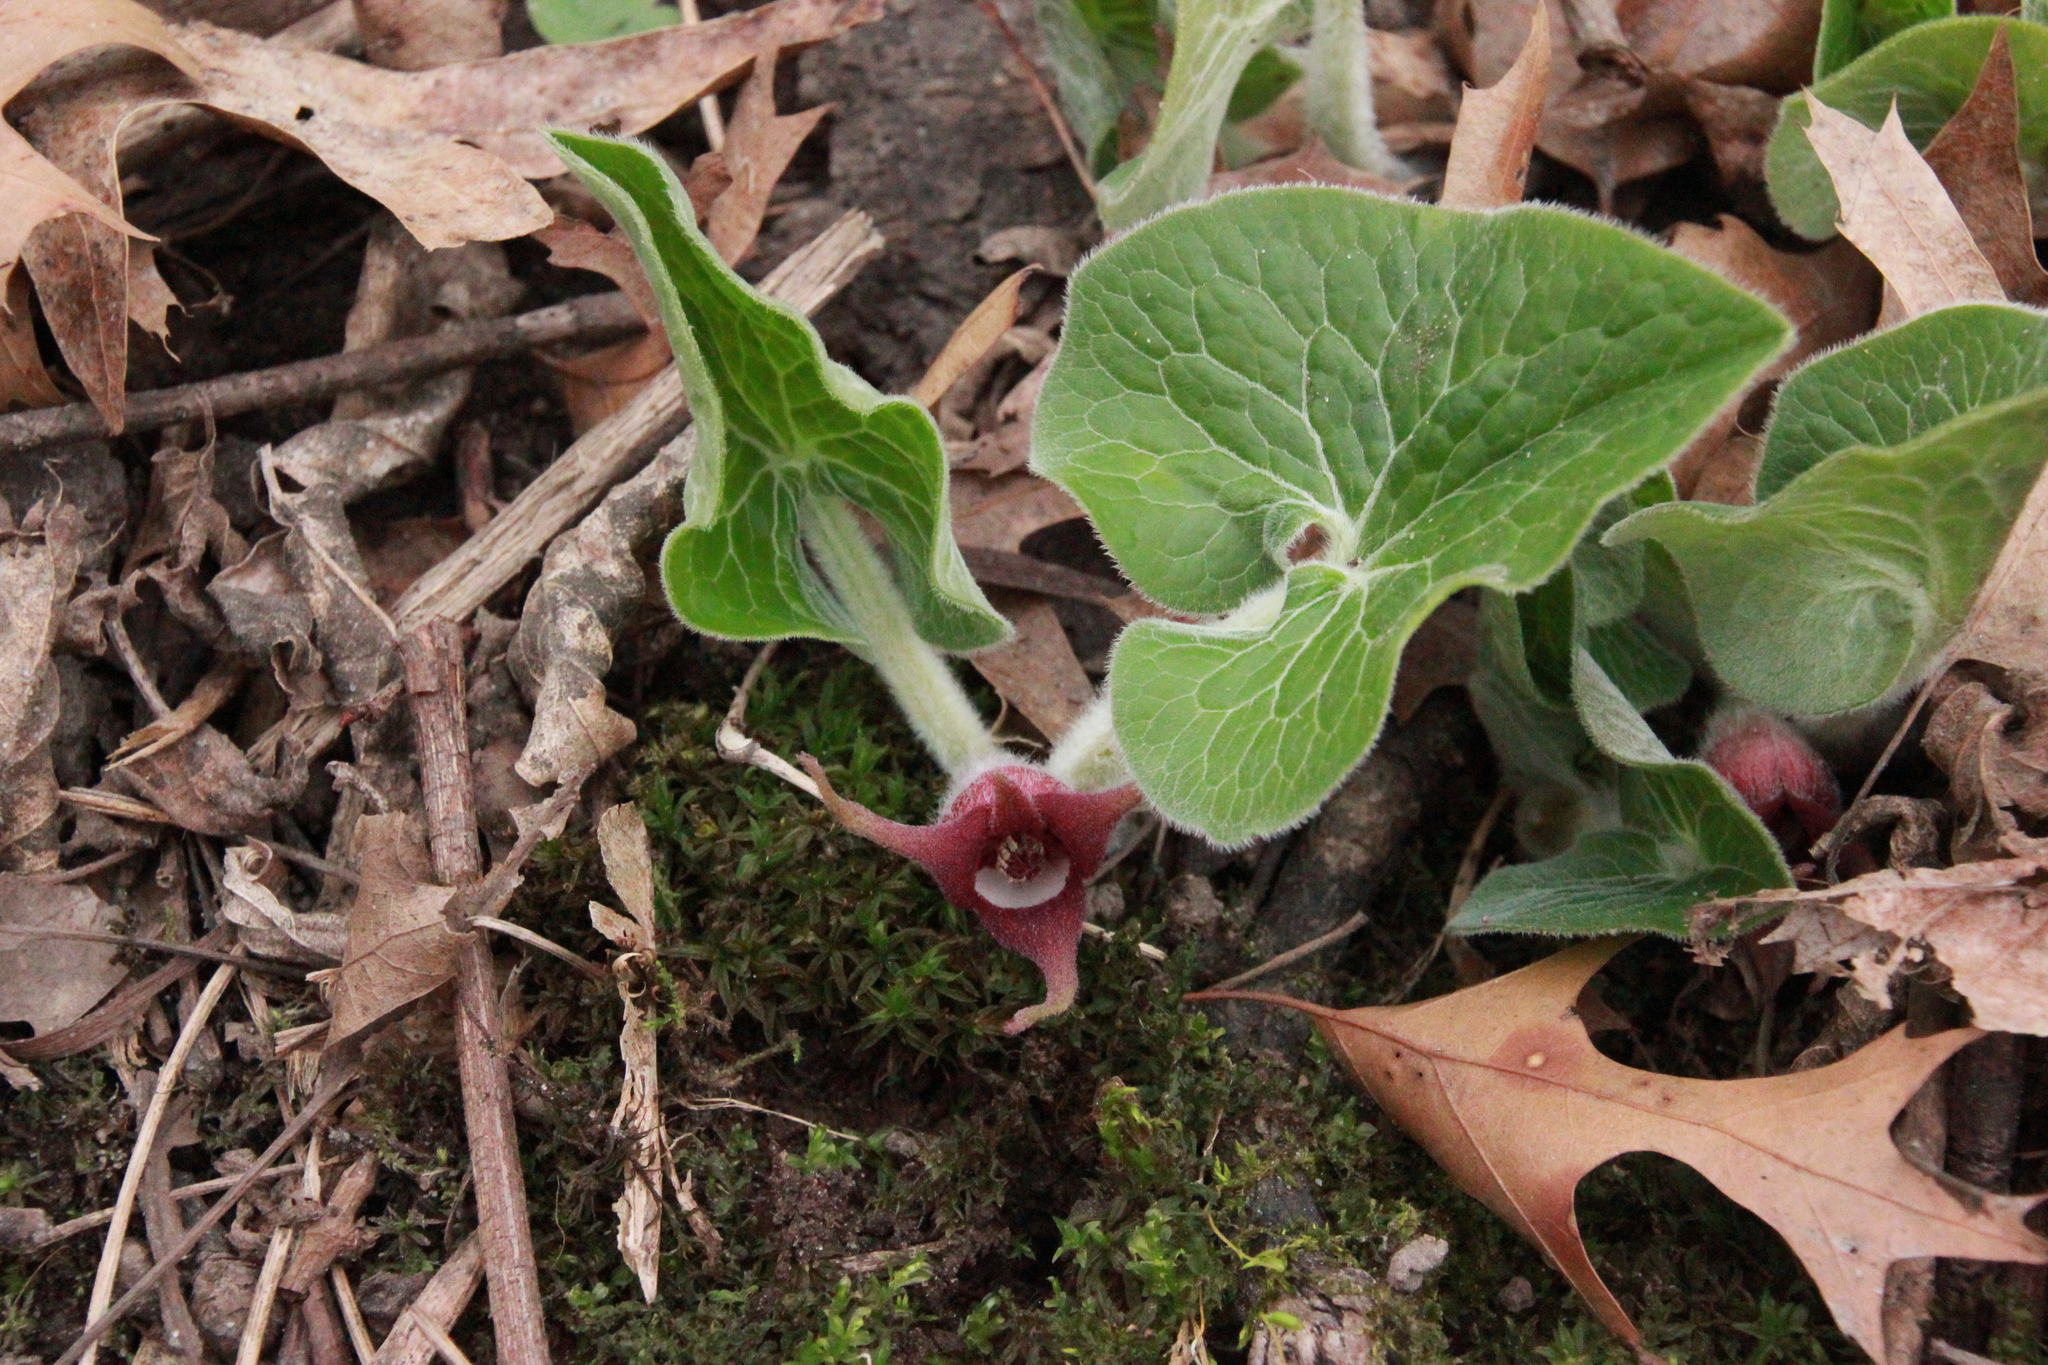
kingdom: Plantae
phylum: Tracheophyta
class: Magnoliopsida
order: Piperales
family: Aristolochiaceae
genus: Asarum
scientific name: Asarum canadense
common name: Wild ginger
